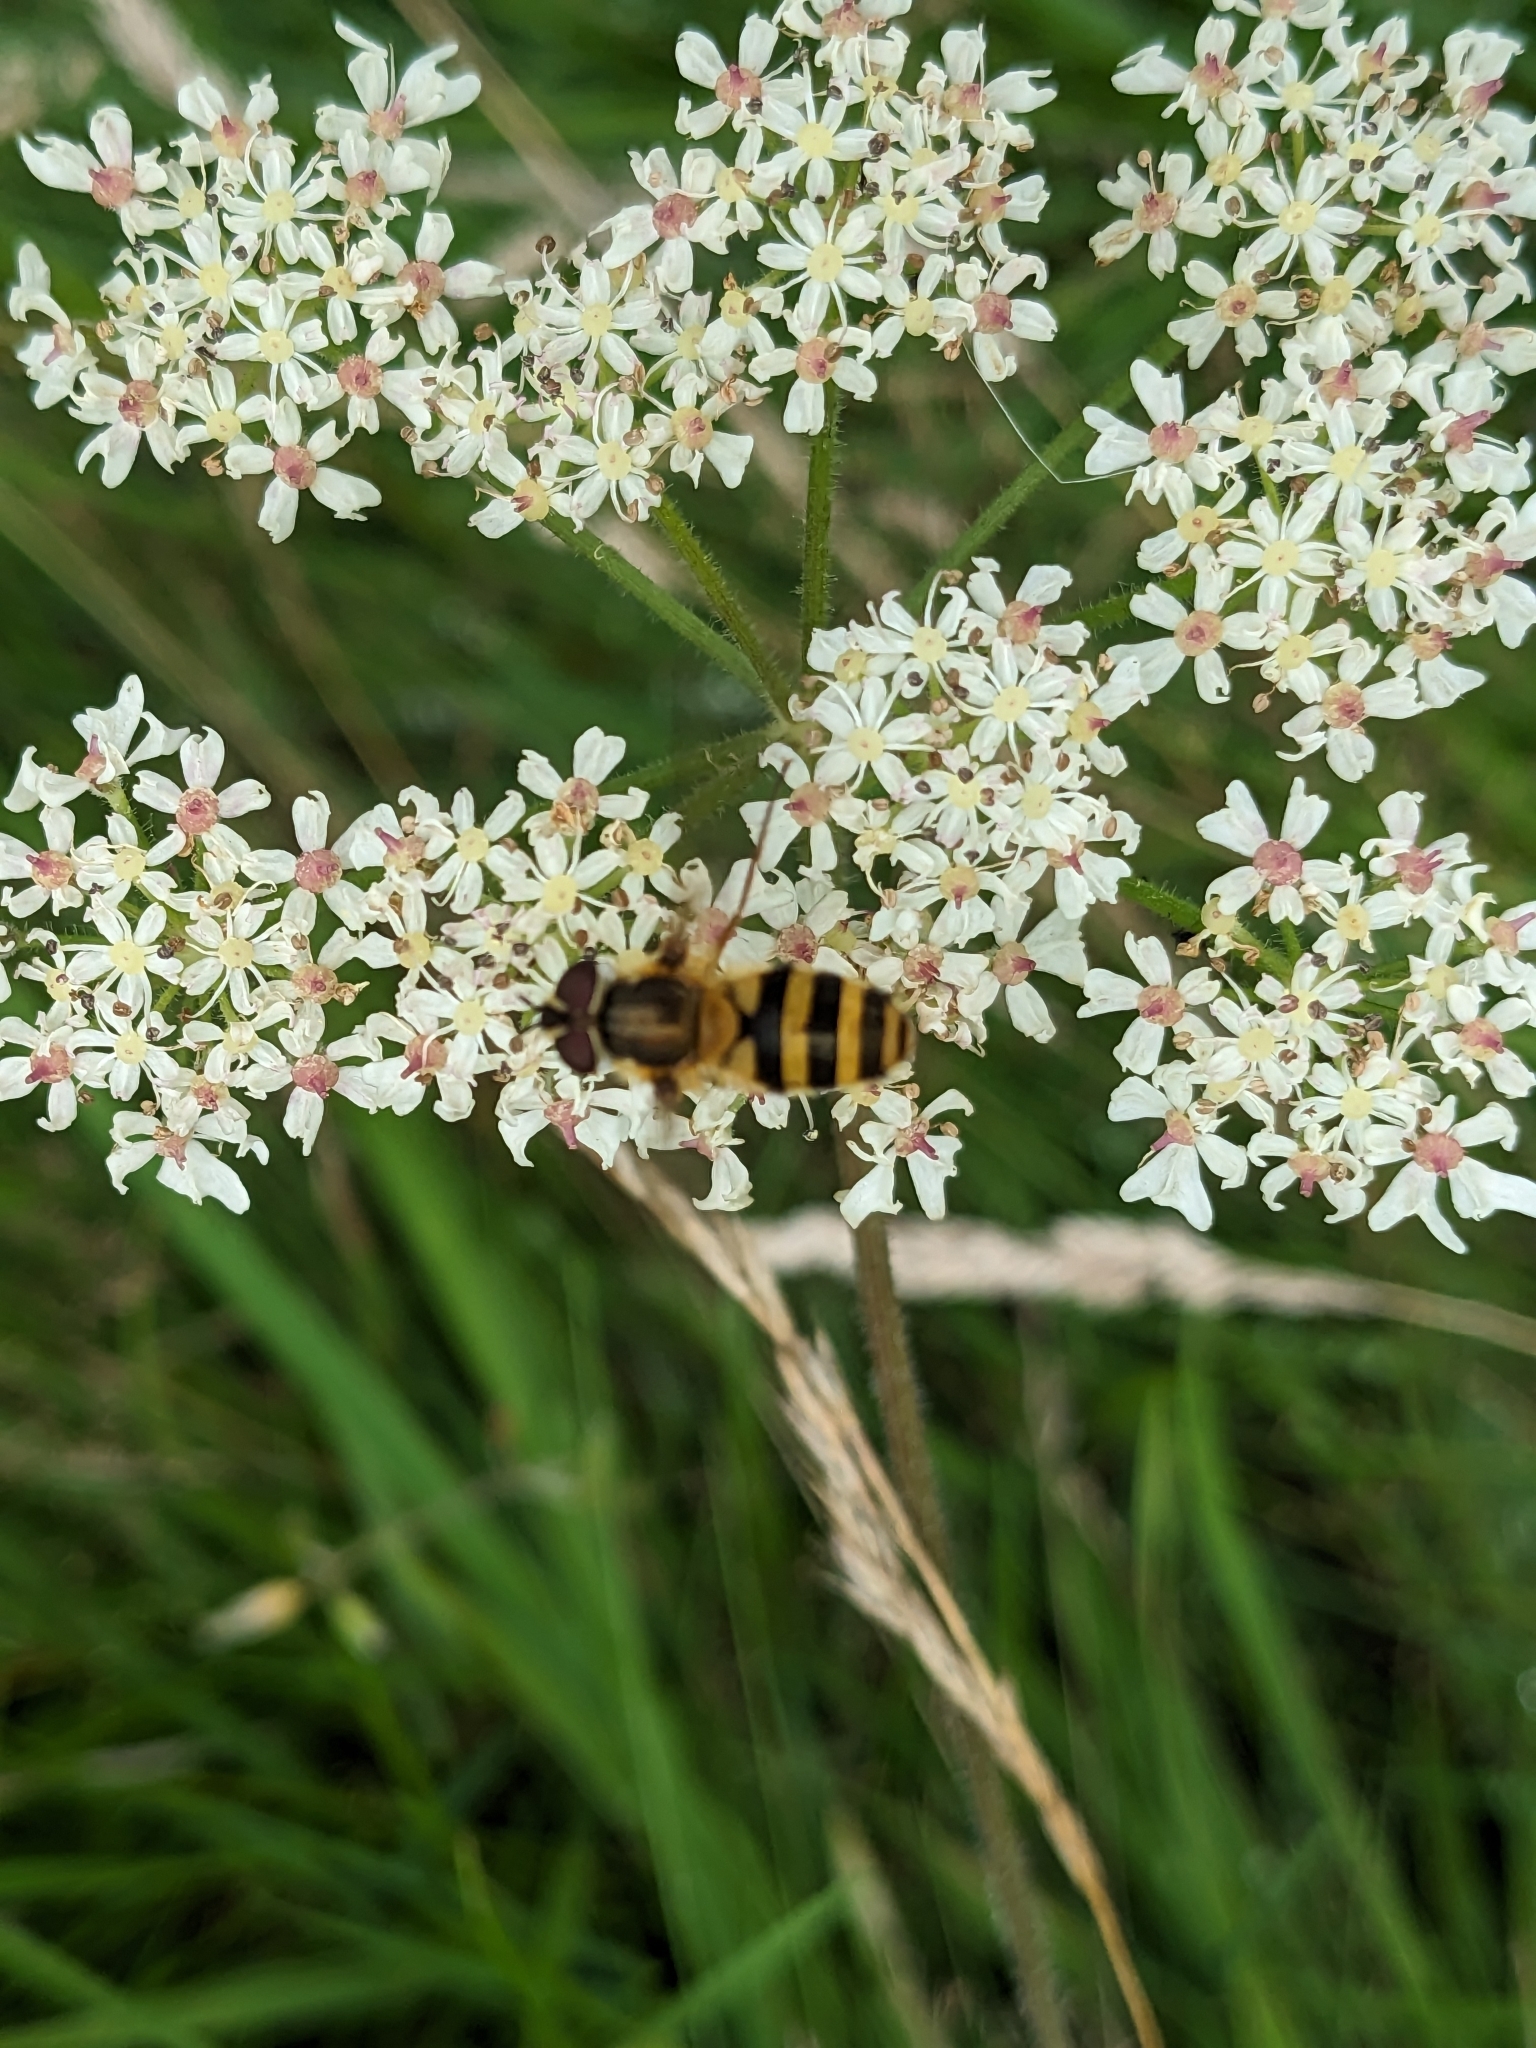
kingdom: Animalia
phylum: Arthropoda
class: Insecta
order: Diptera
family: Syrphidae
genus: Epistrophe
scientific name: Epistrophe grossulariae
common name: Black-horned smoothtail
